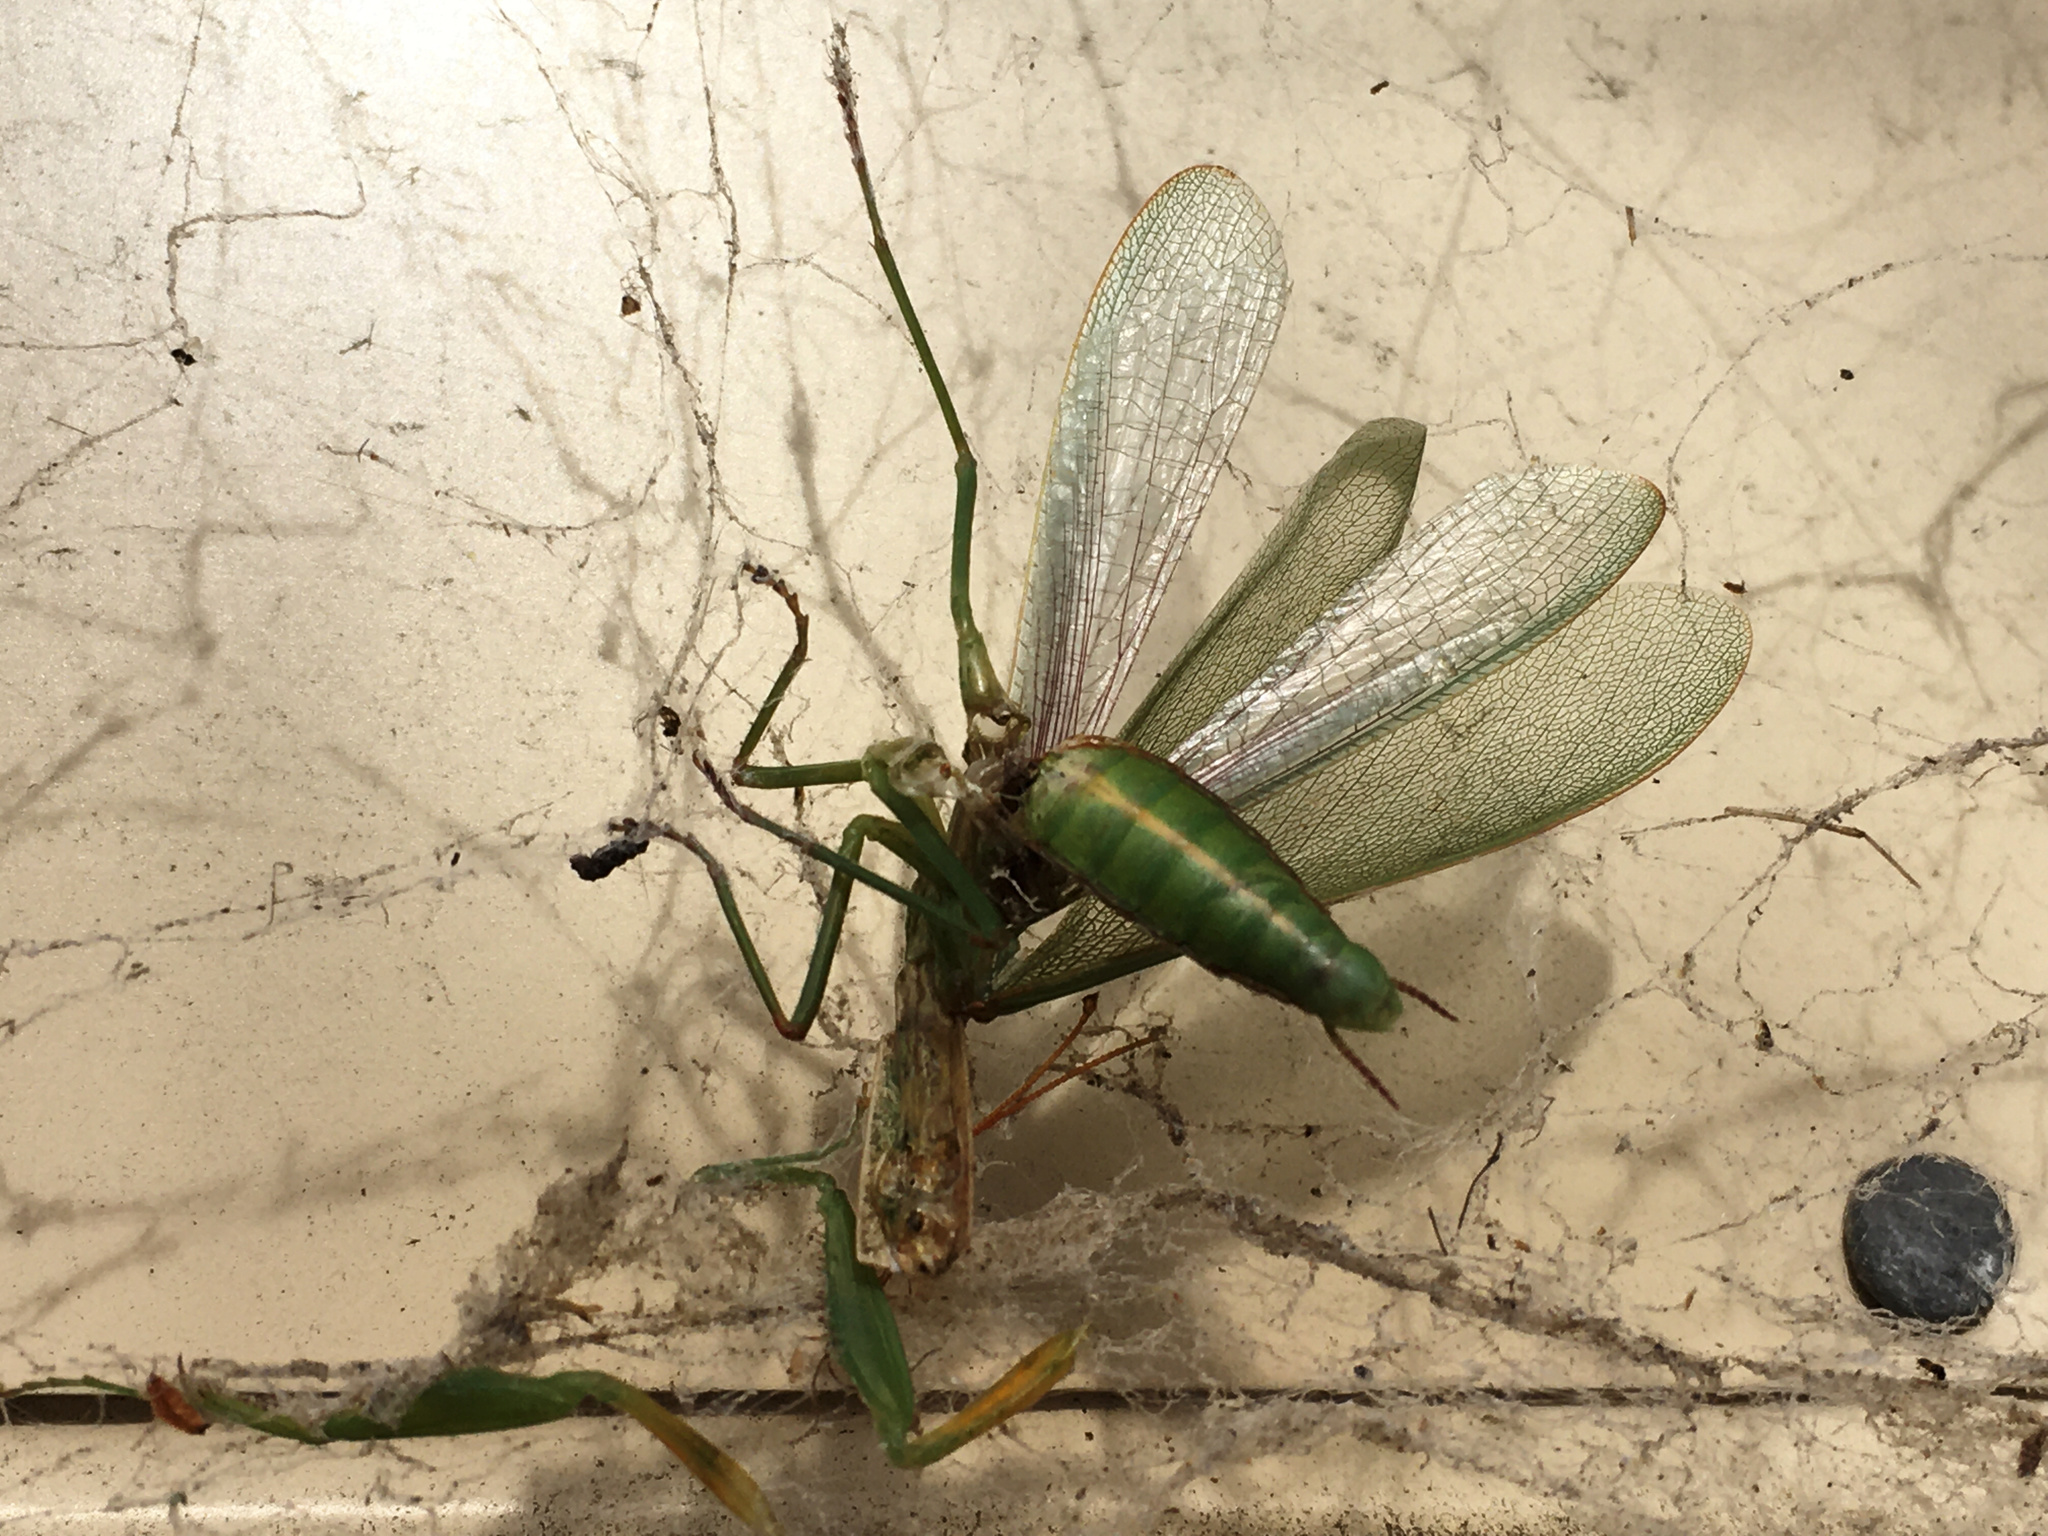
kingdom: Animalia
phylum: Arthropoda
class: Insecta
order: Mantodea
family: Mantidae
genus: Orthodera
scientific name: Orthodera novaezealandiae
